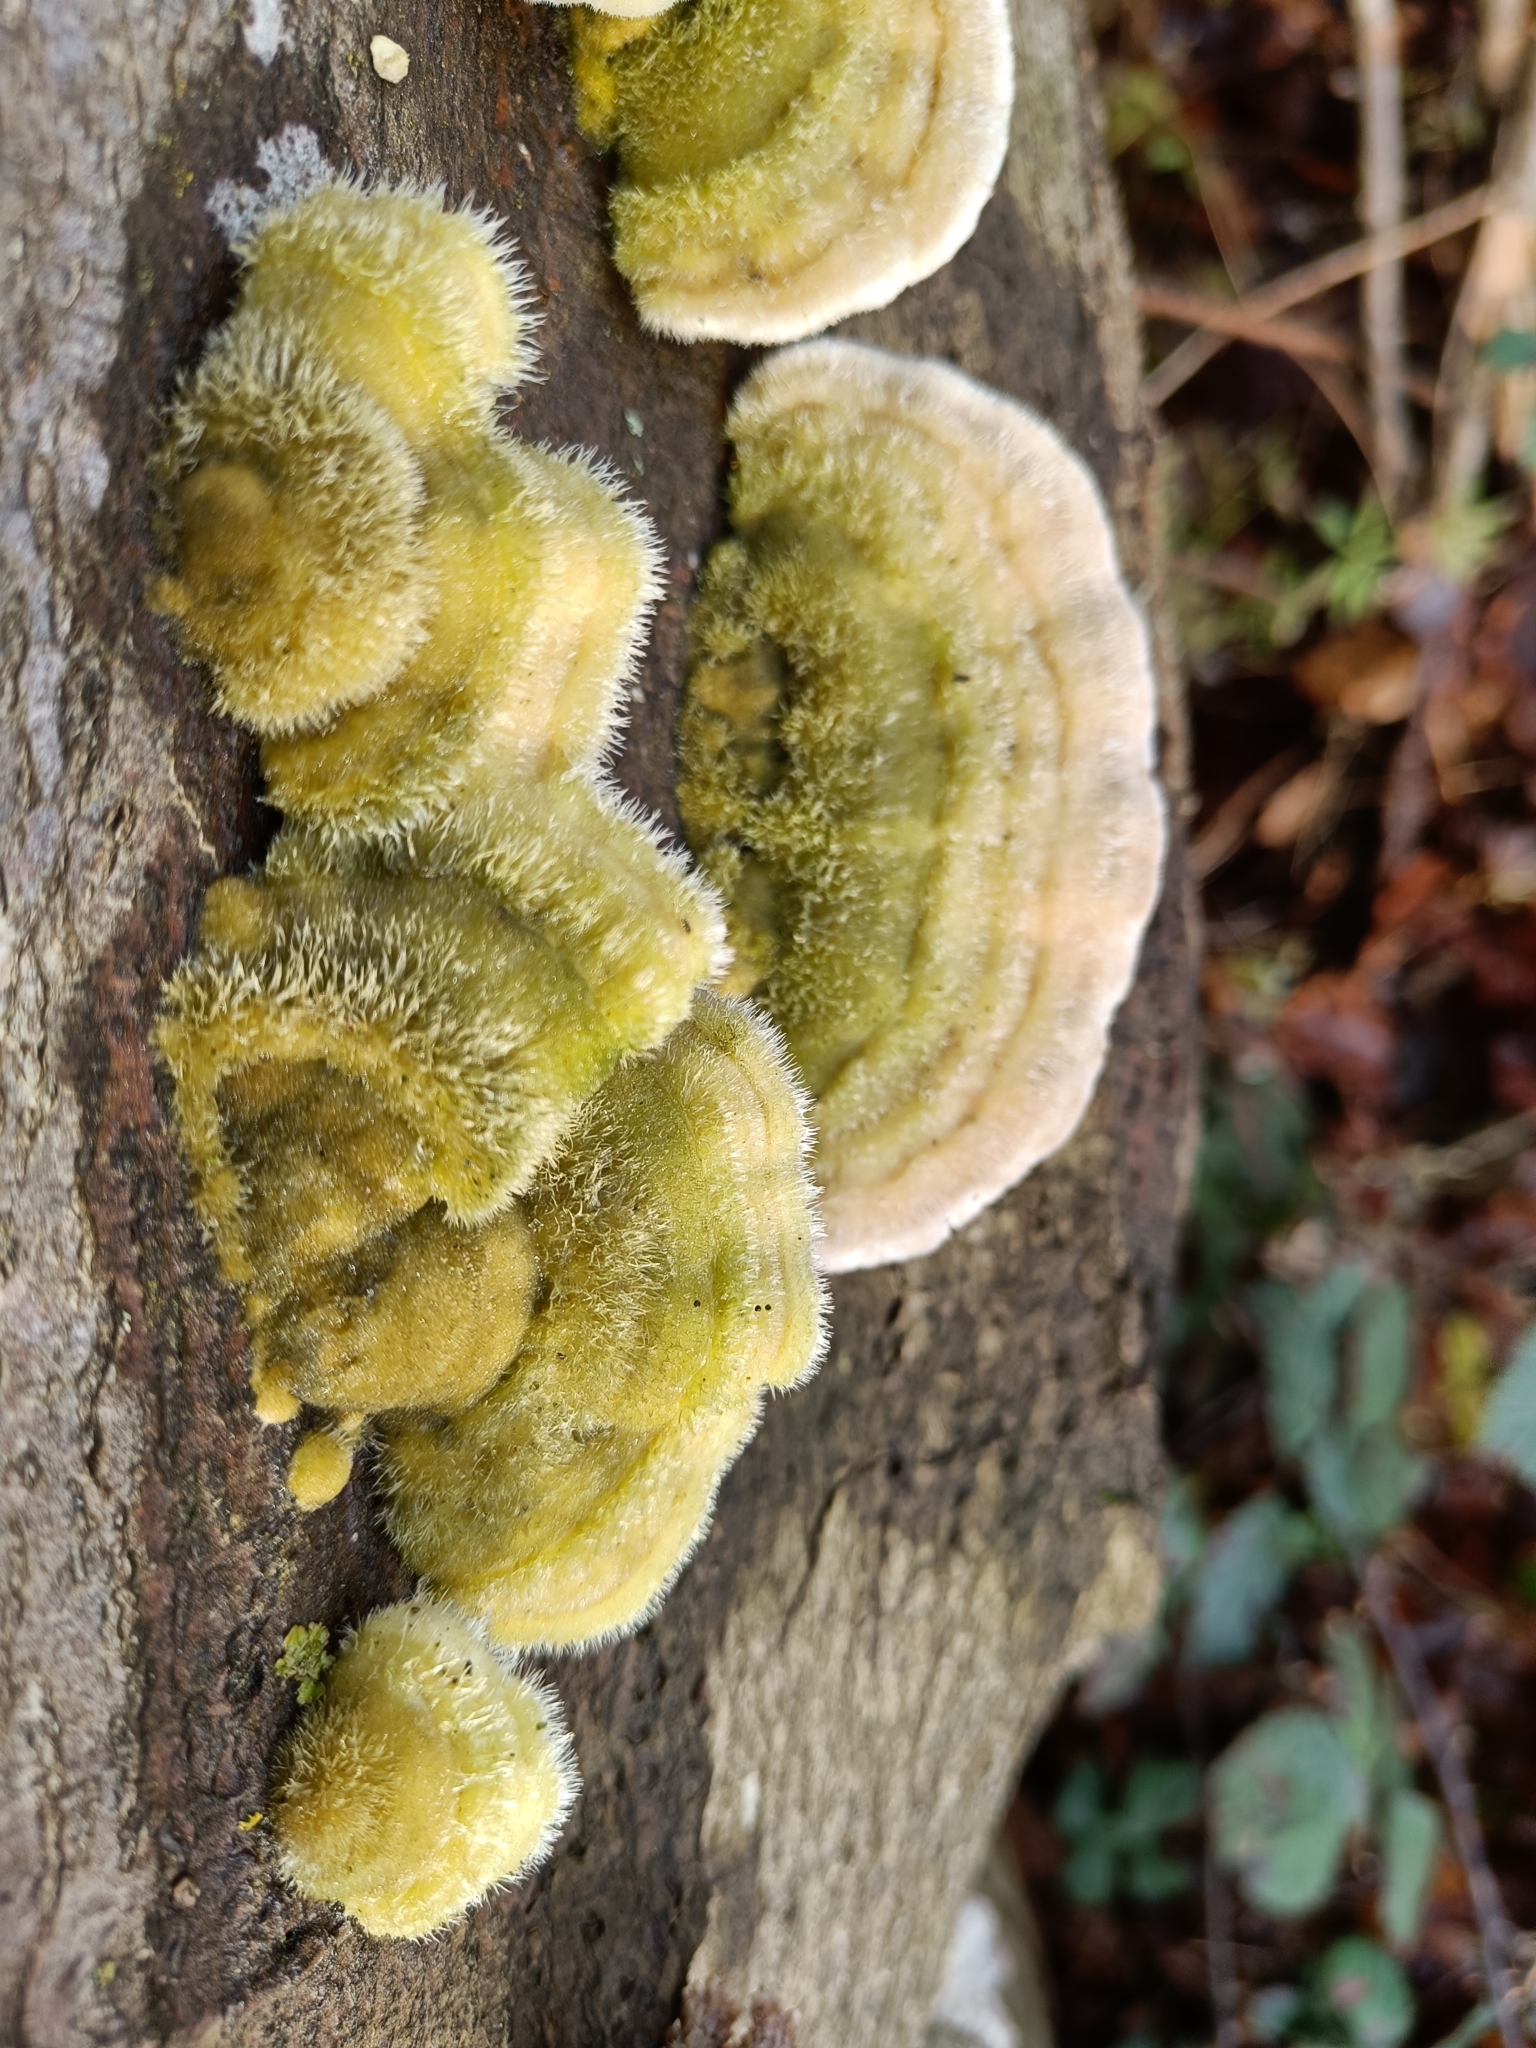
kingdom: Fungi
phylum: Basidiomycota
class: Agaricomycetes
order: Polyporales
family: Polyporaceae
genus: Trametes
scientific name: Trametes hirsuta
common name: Hairy bracket
